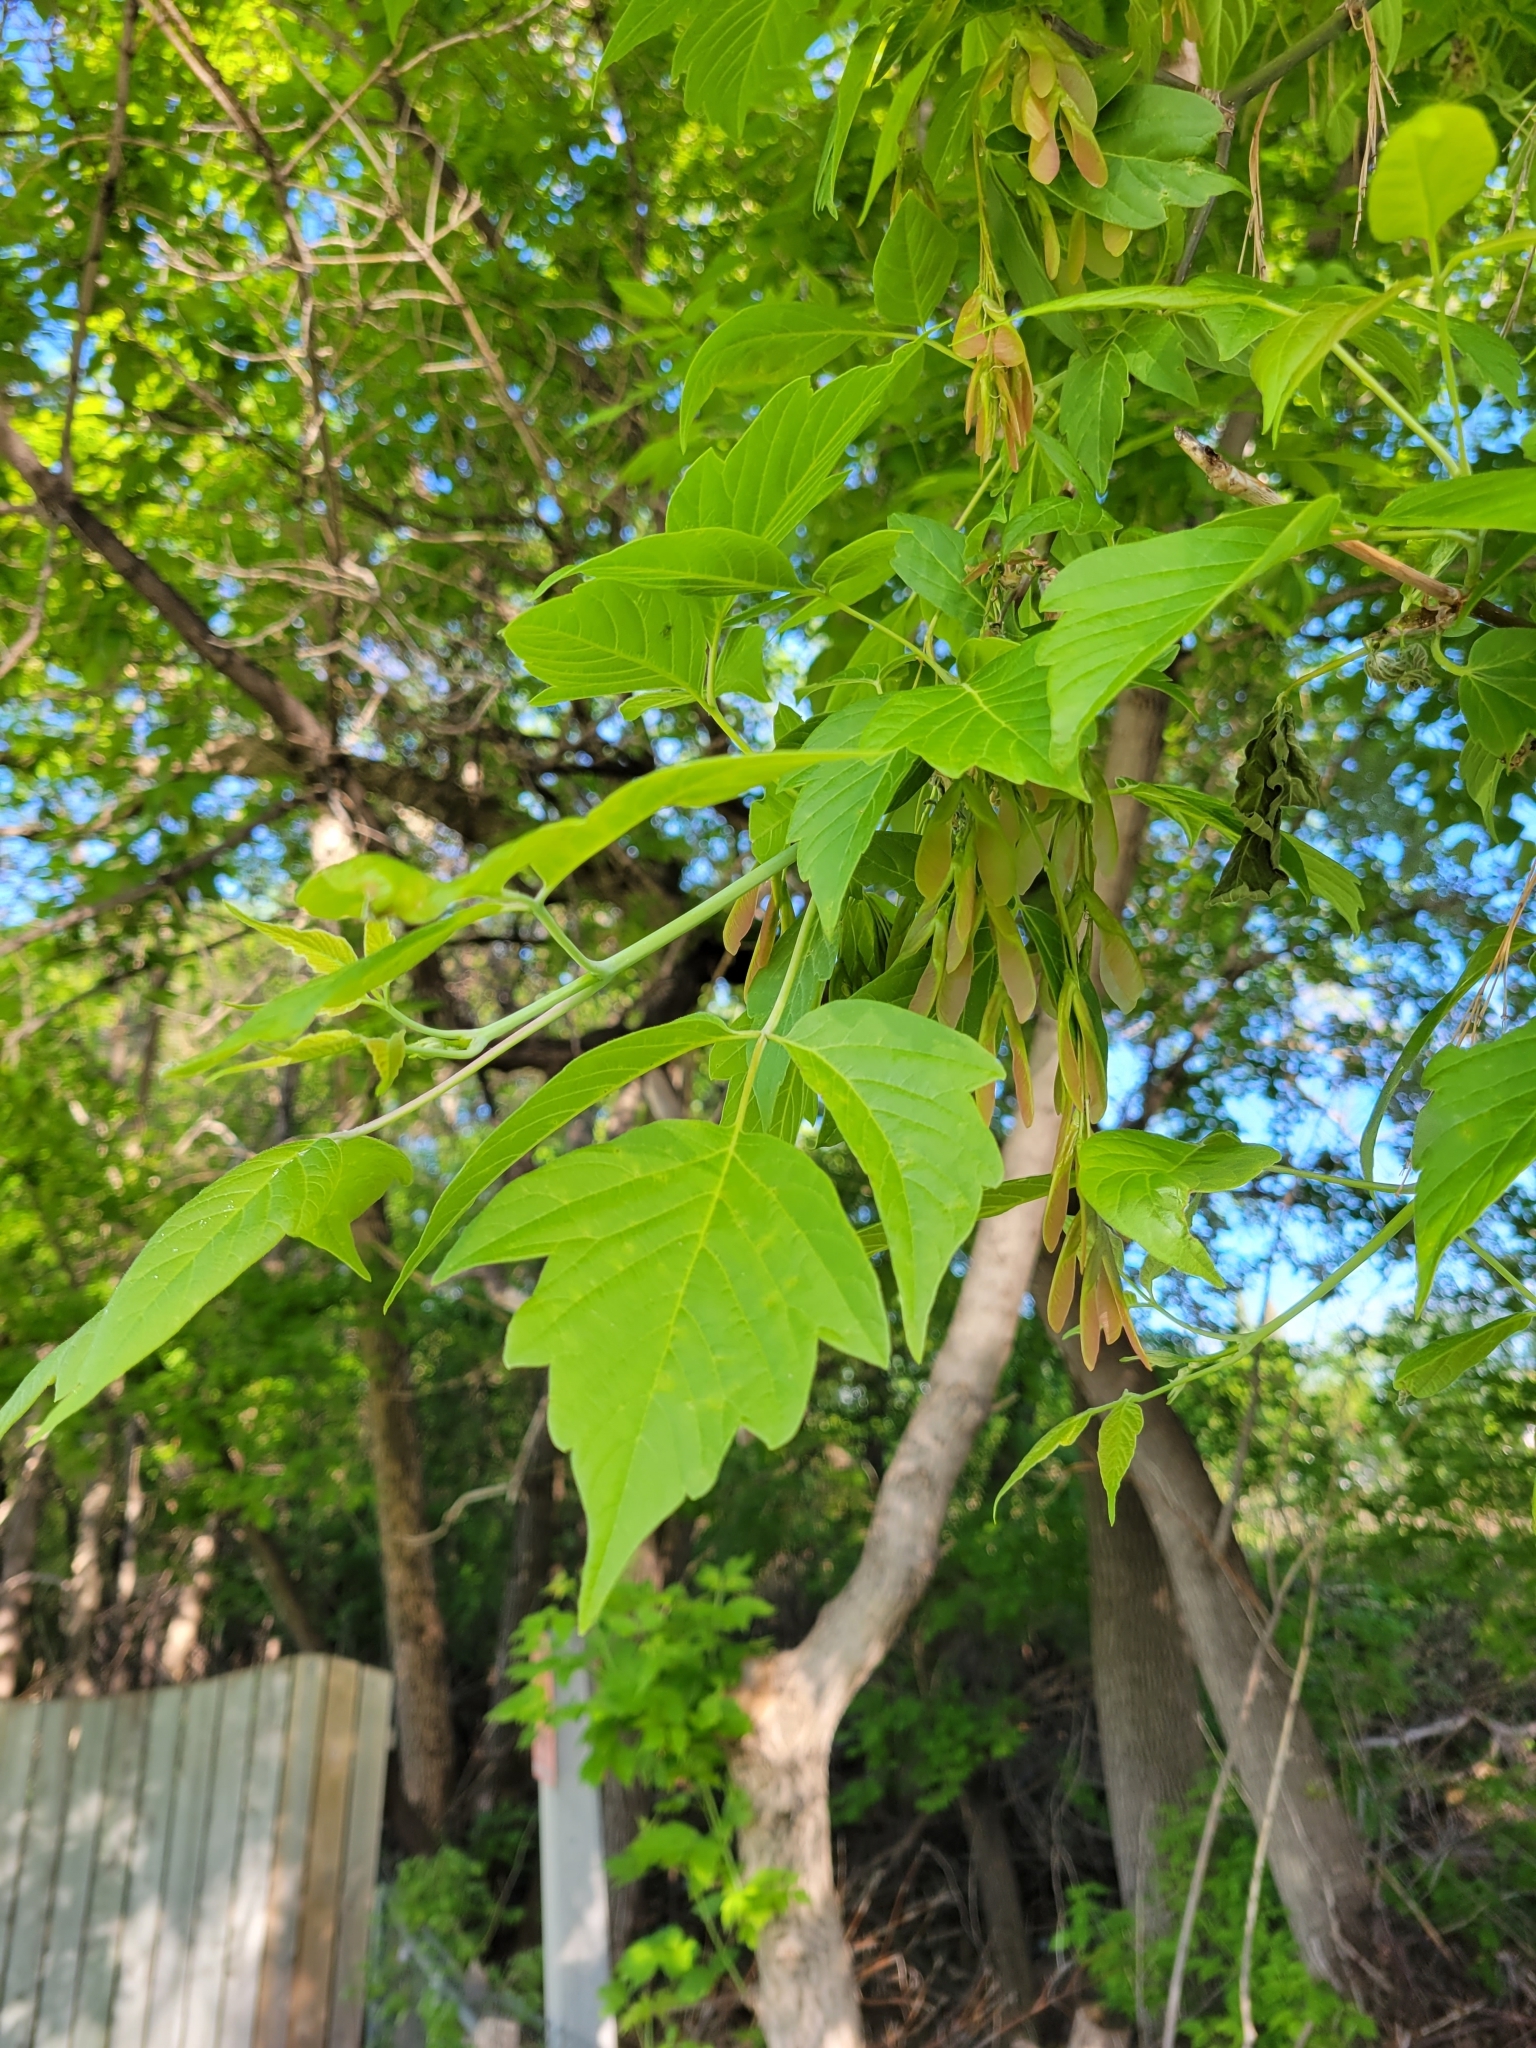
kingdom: Plantae
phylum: Tracheophyta
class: Magnoliopsida
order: Sapindales
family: Sapindaceae
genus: Acer
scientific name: Acer negundo
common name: Ashleaf maple
